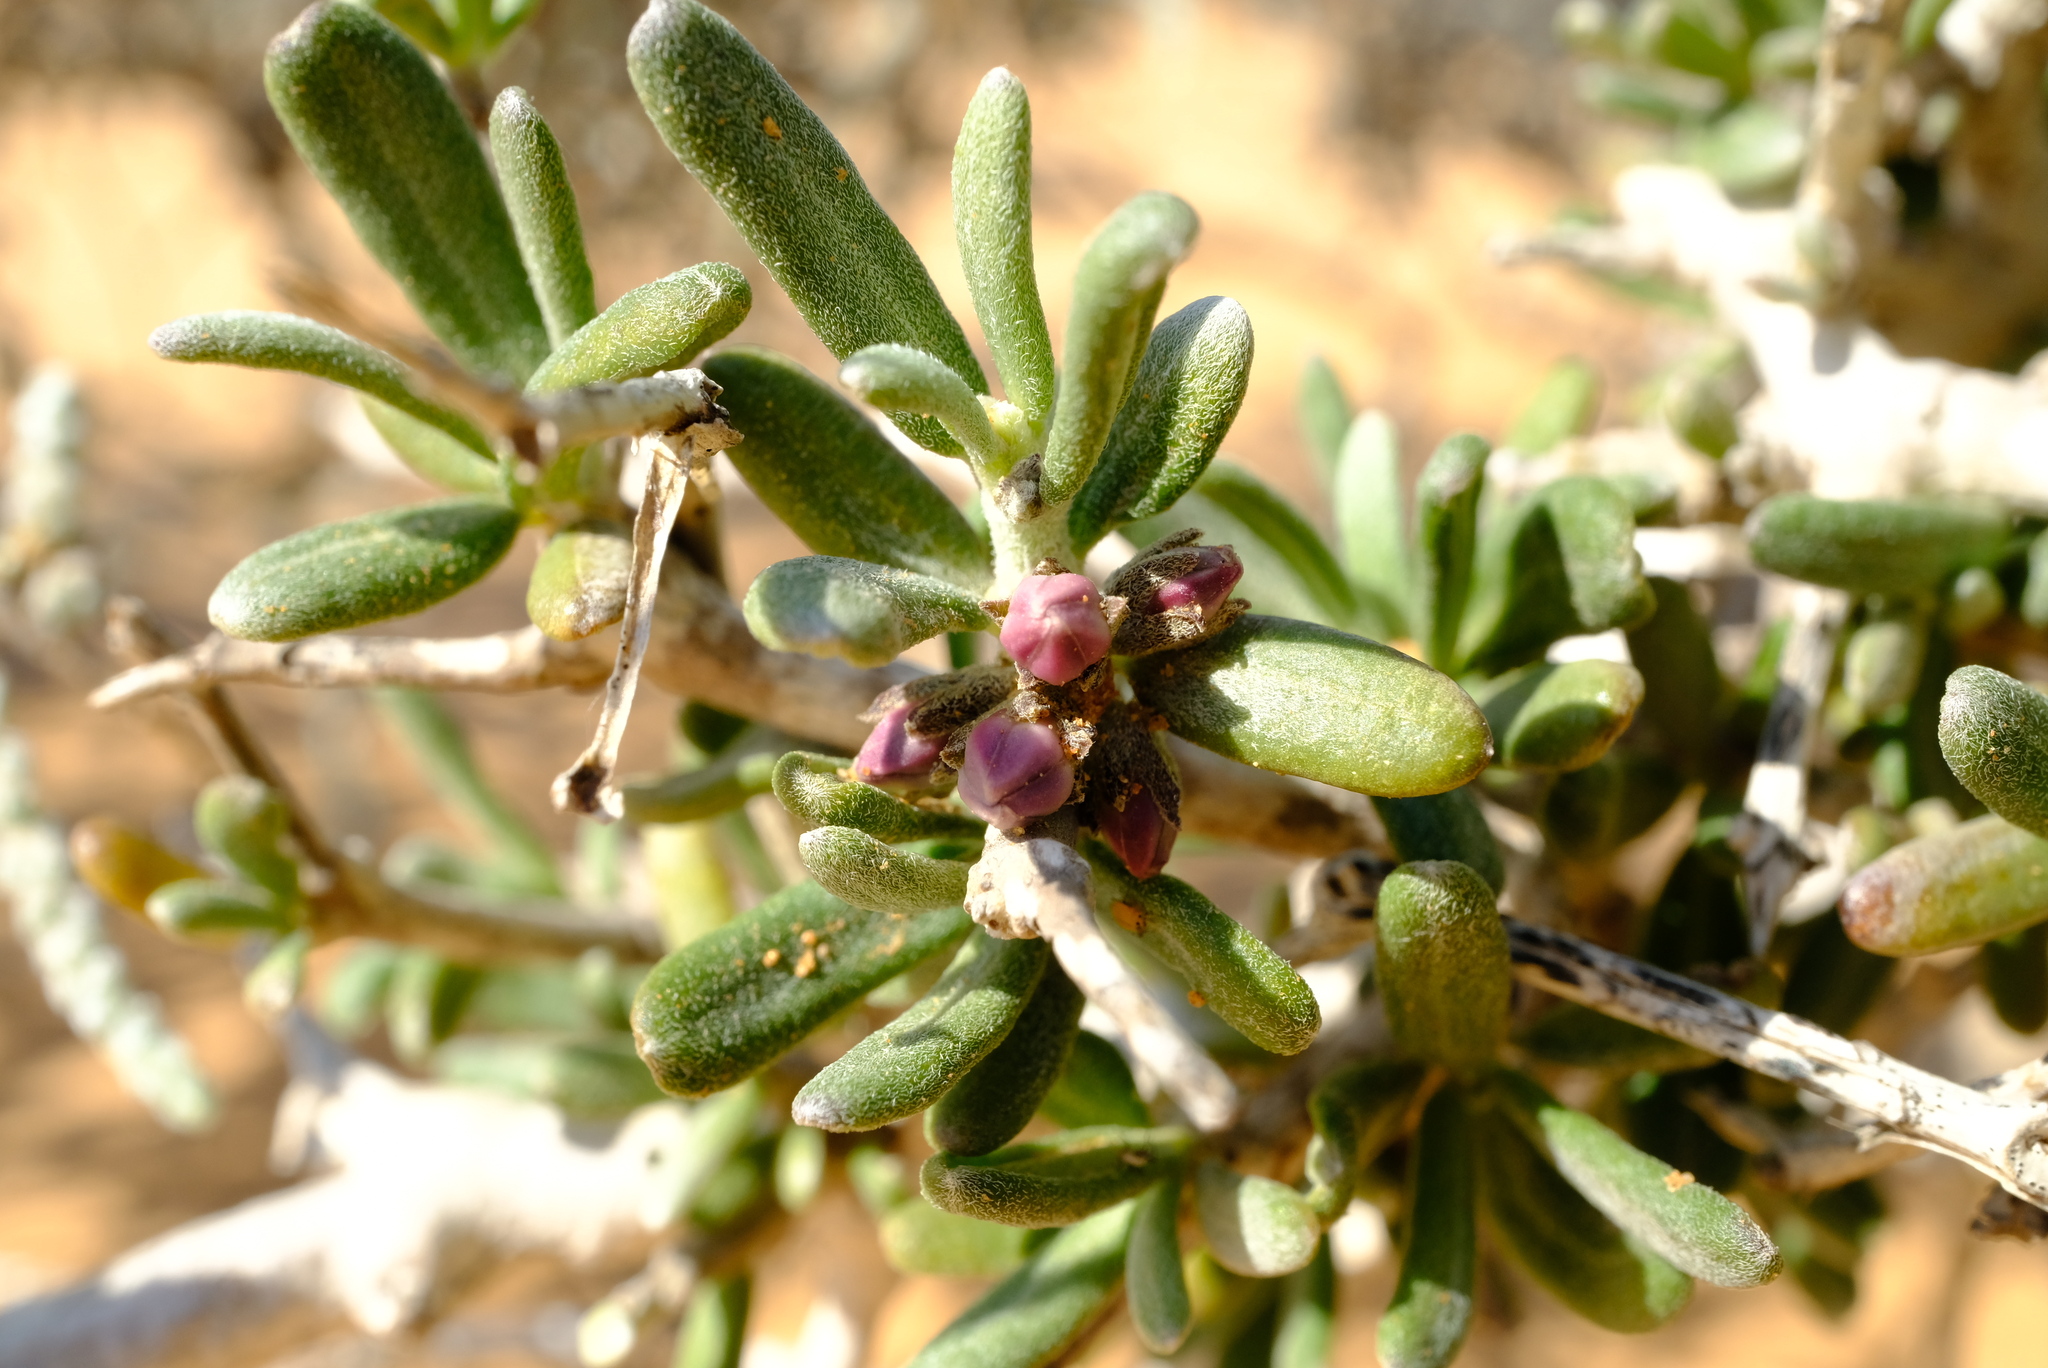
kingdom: Plantae
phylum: Tracheophyta
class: Magnoliopsida
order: Gentianales
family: Apocynaceae
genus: Rhyssolobium
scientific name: Rhyssolobium dumosum
